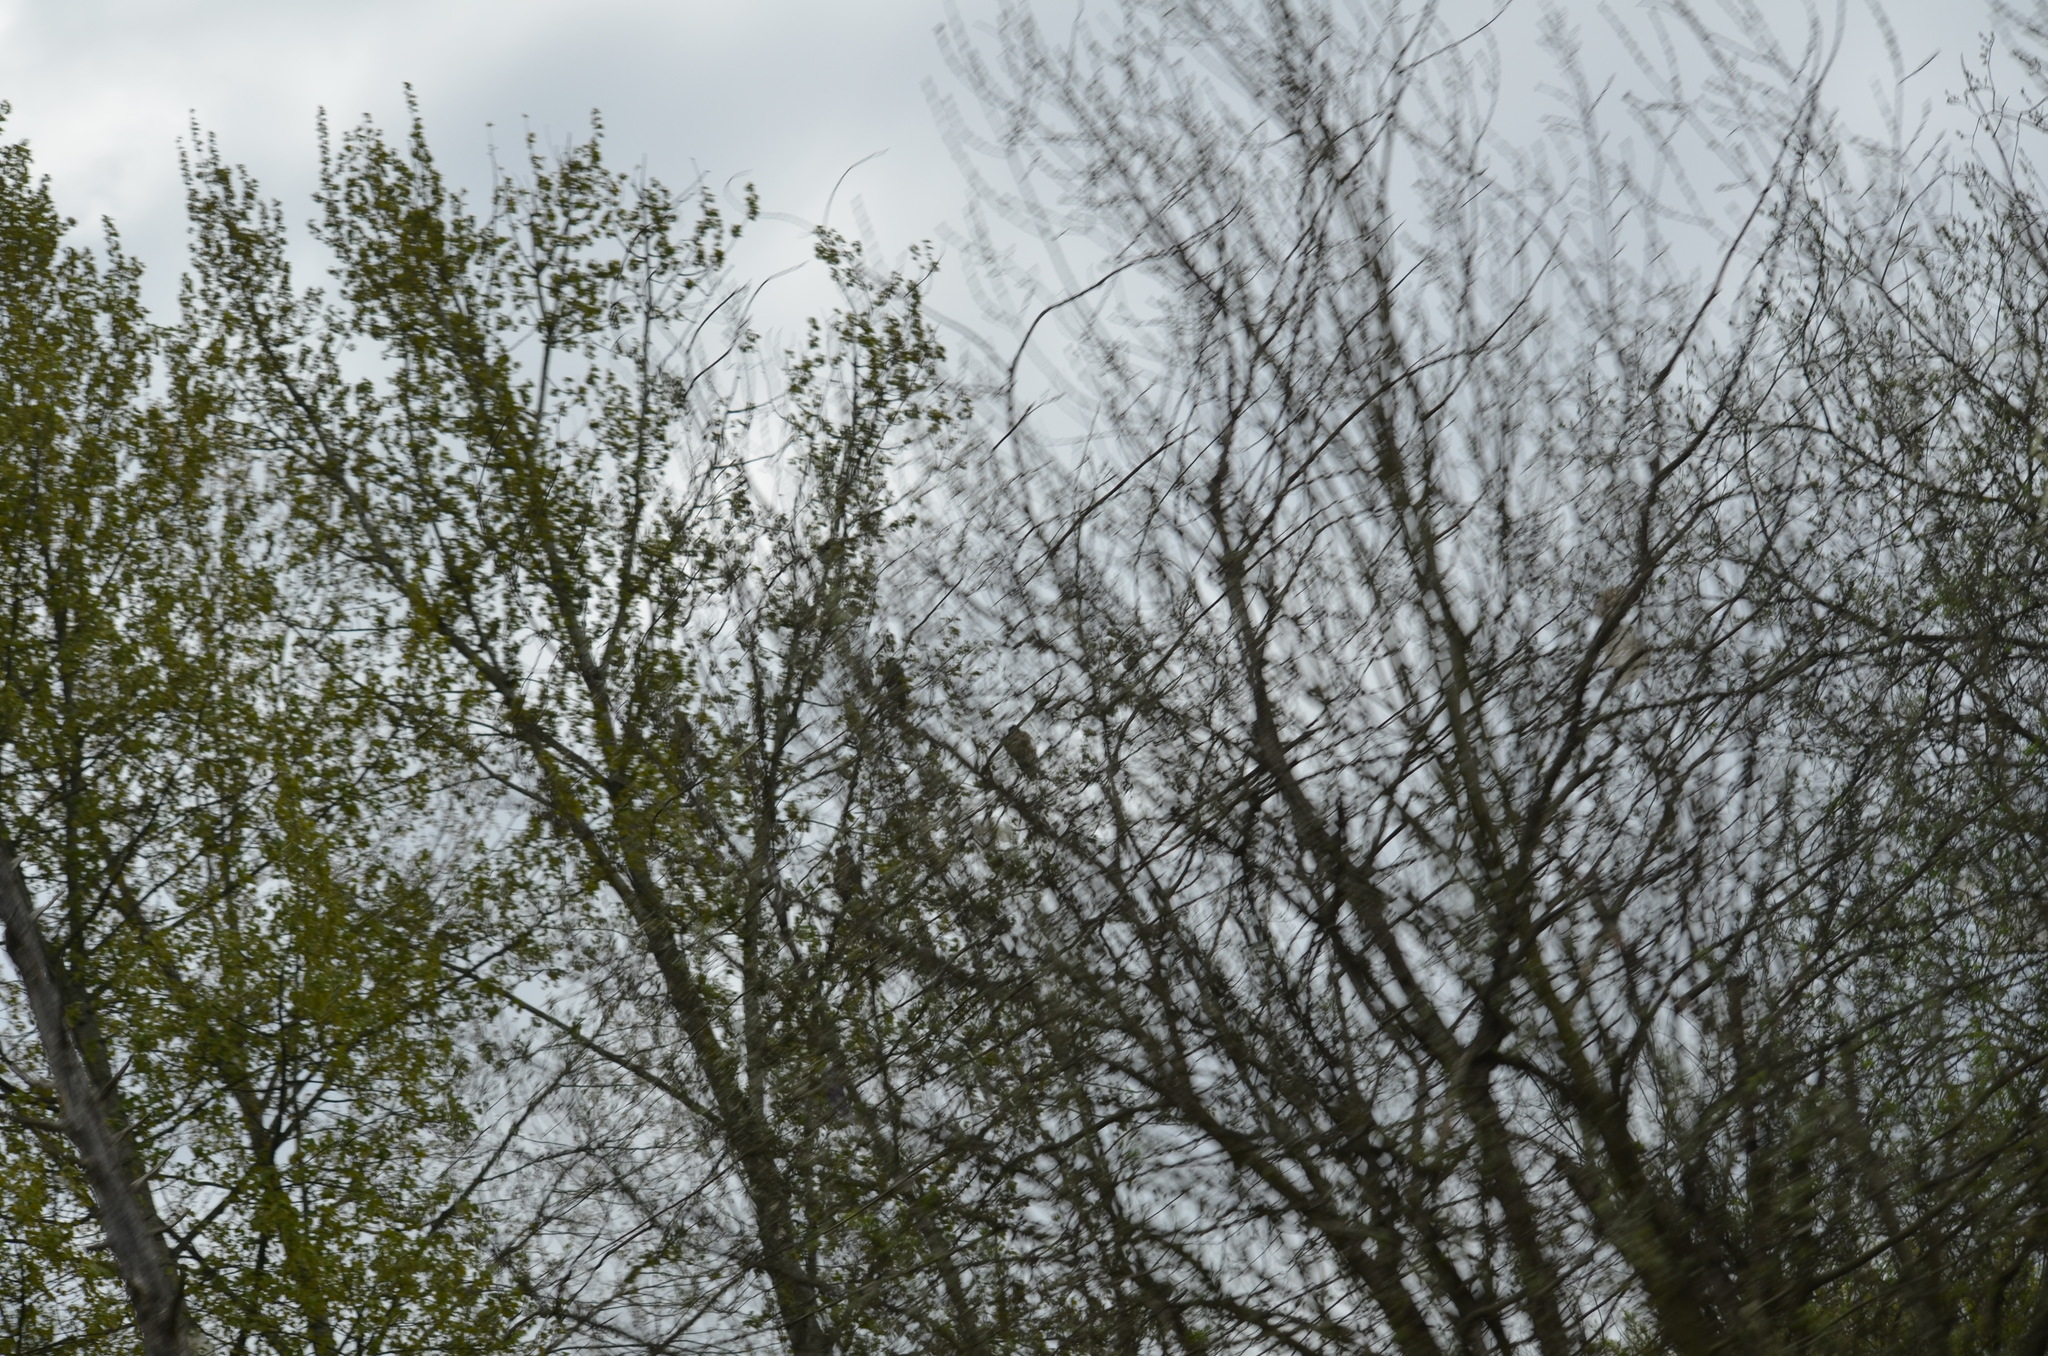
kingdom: Animalia
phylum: Chordata
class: Aves
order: Accipitriformes
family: Accipitridae
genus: Haliaeetus
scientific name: Haliaeetus leucocephalus
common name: Bald eagle
